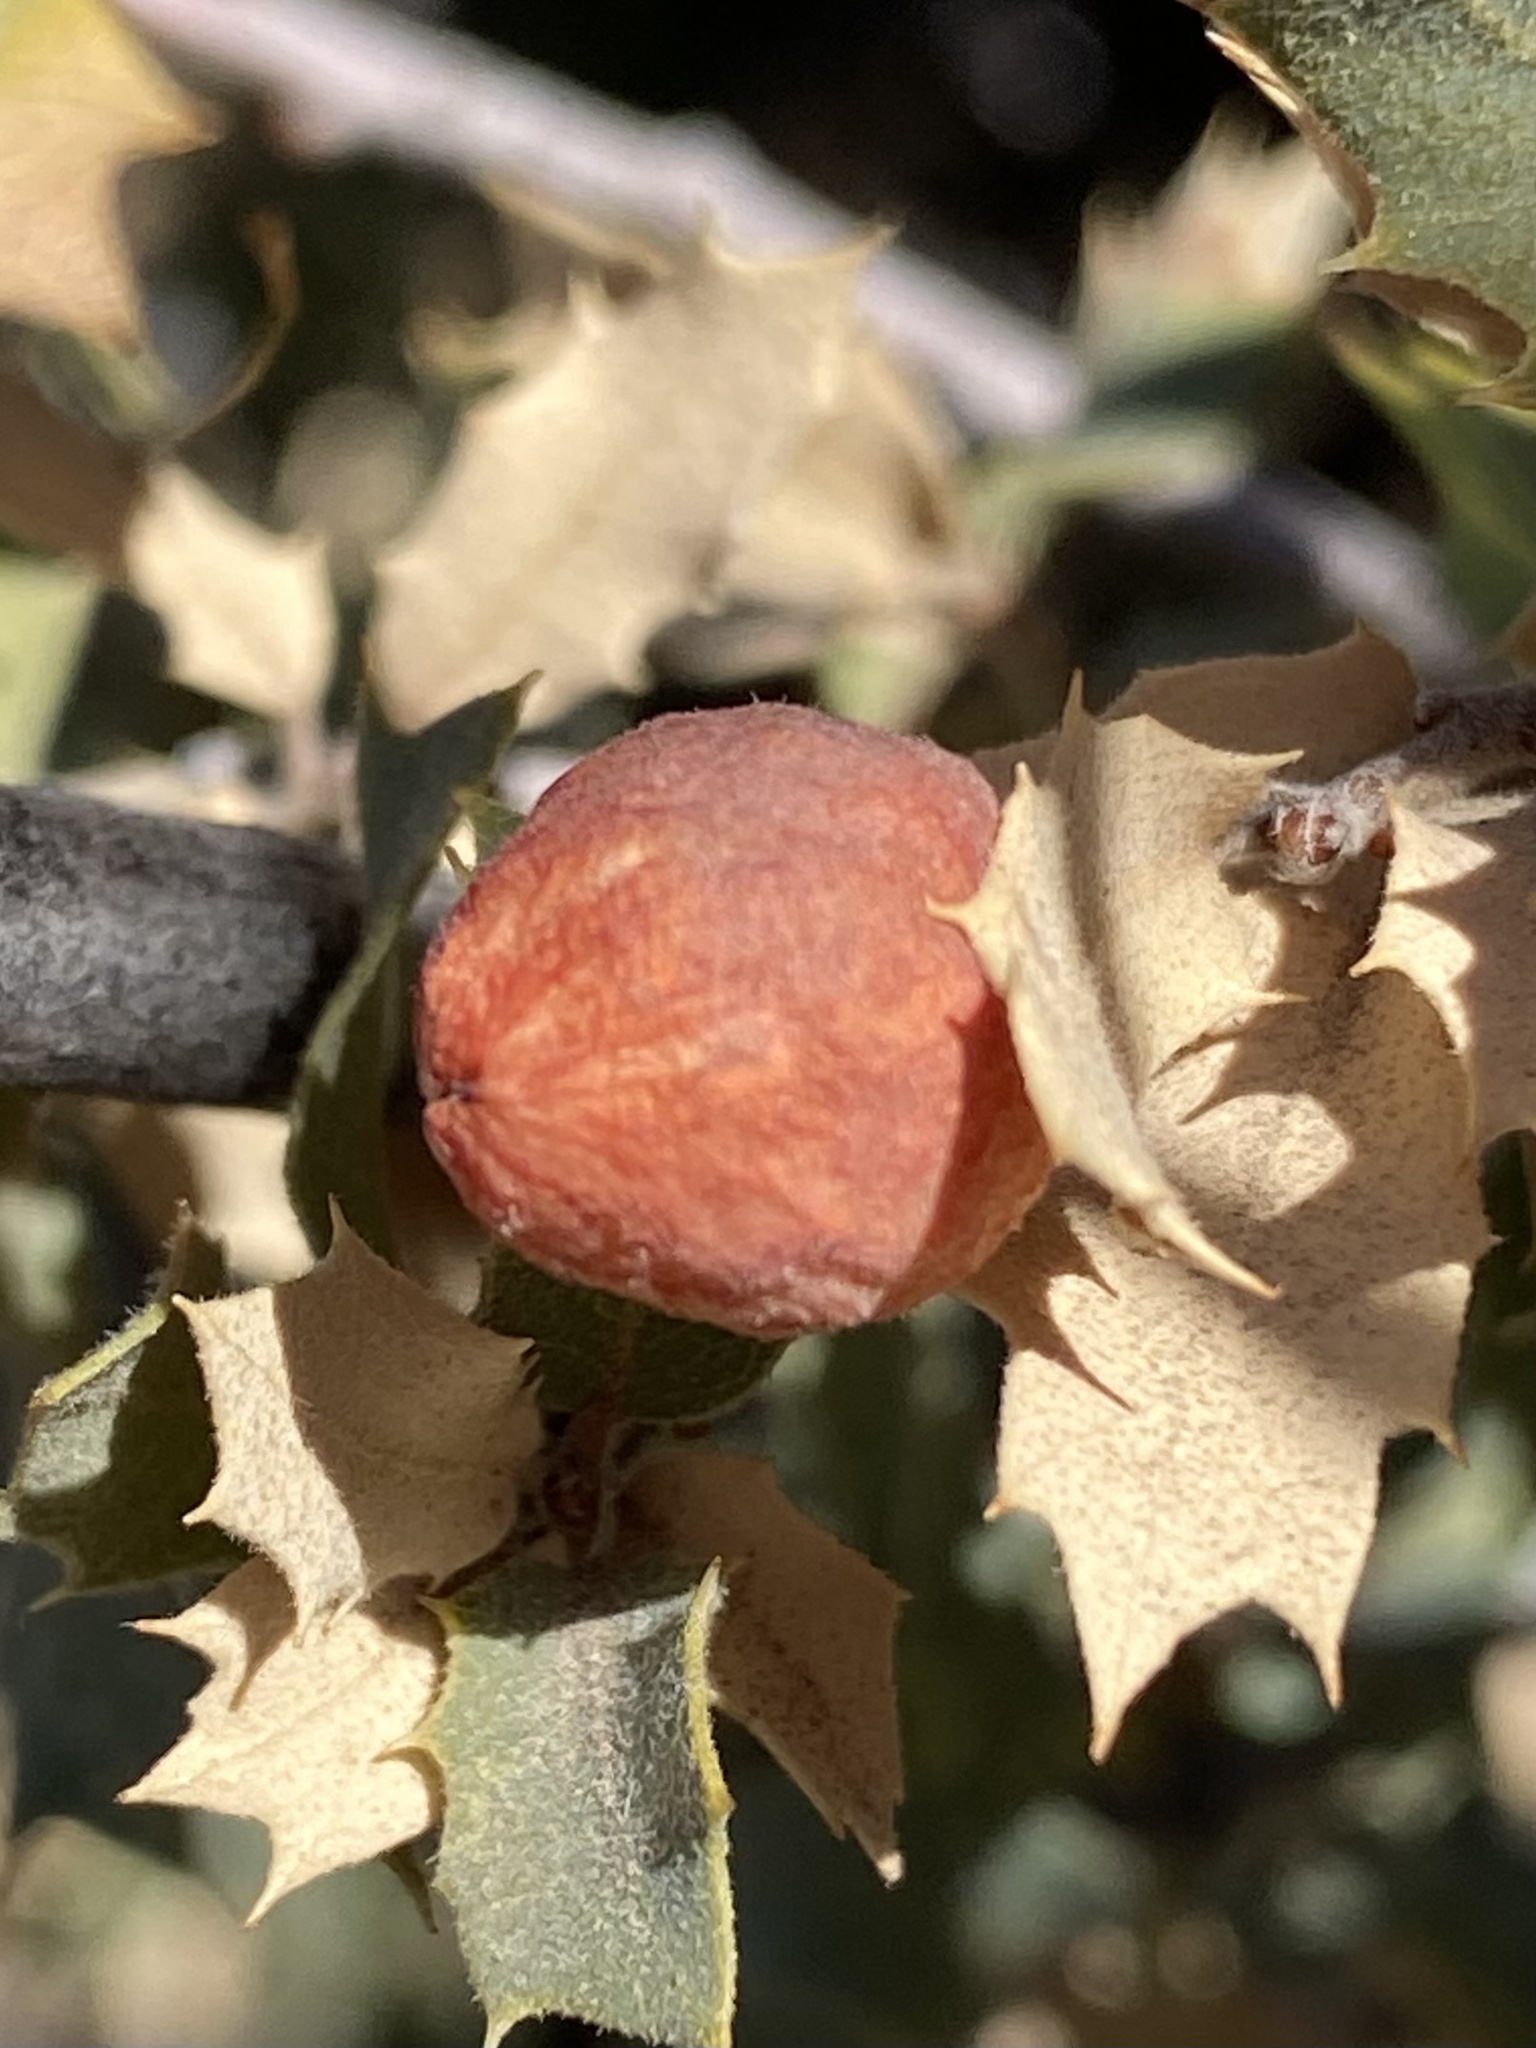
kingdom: Animalia
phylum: Arthropoda
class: Insecta
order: Hymenoptera
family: Cynipidae
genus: Atrusca
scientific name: Atrusca
